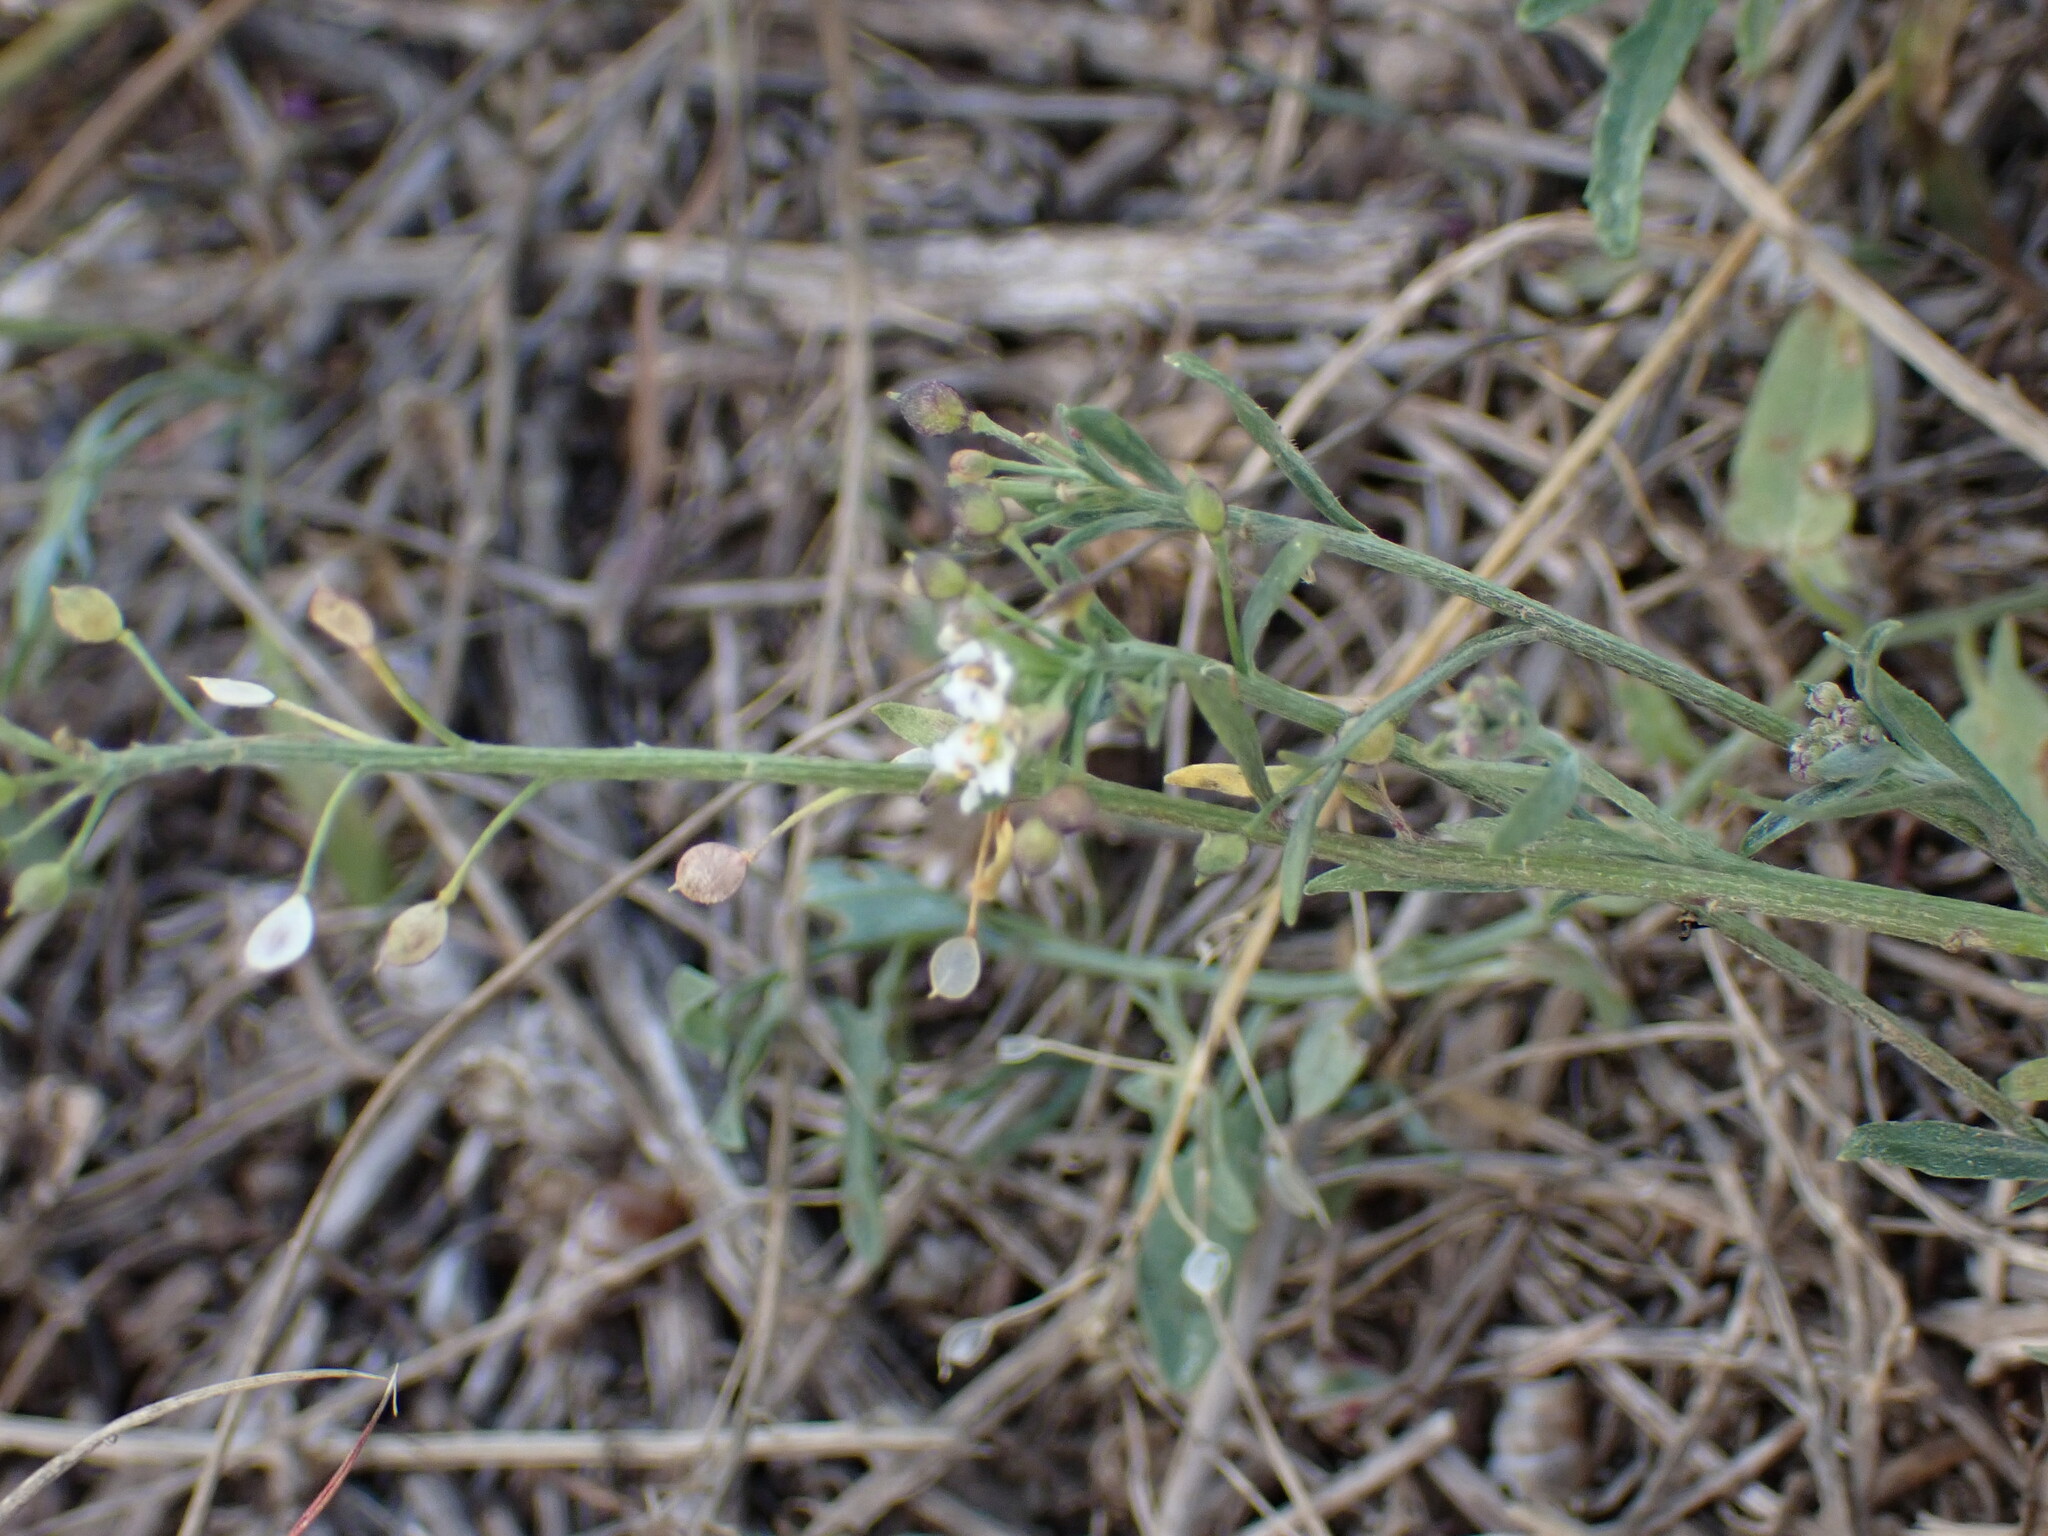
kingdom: Plantae
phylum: Tracheophyta
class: Magnoliopsida
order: Brassicales
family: Brassicaceae
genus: Lobularia
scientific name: Lobularia maritima
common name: Sweet alison
